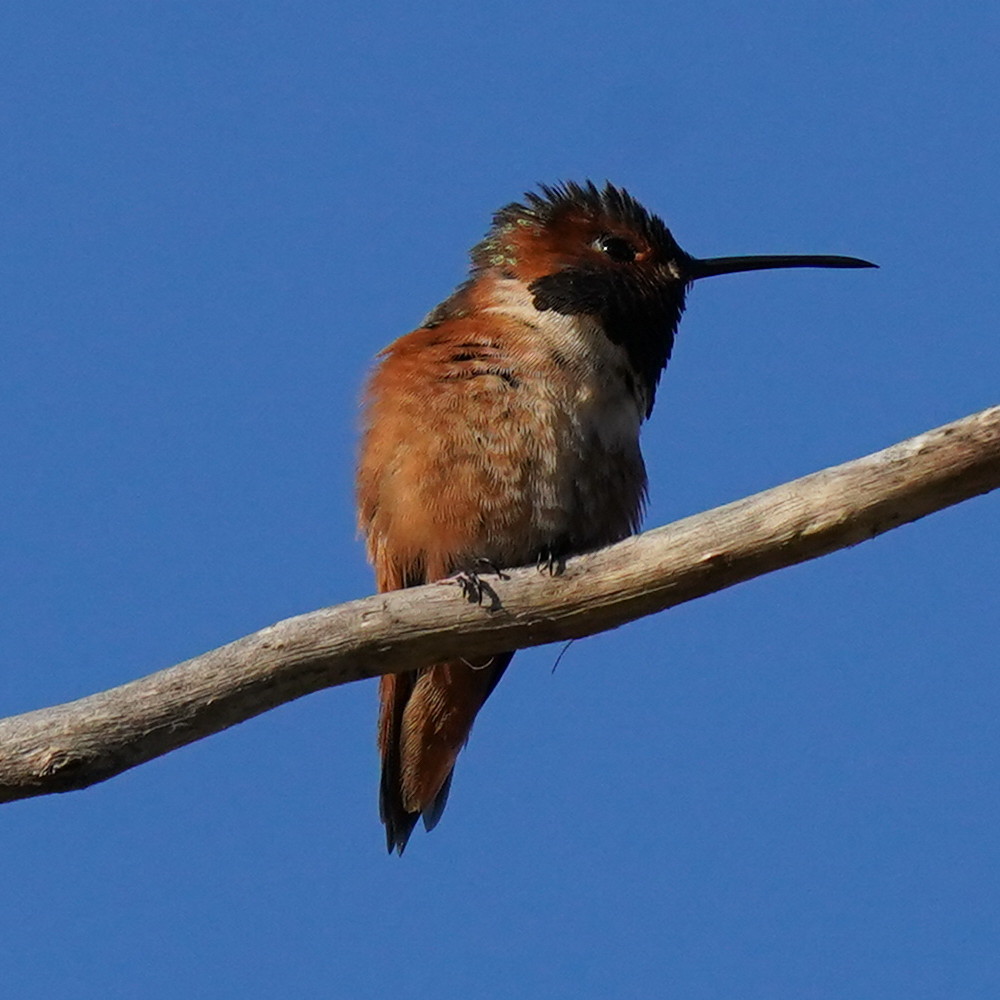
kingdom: Animalia
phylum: Chordata
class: Aves
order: Apodiformes
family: Trochilidae
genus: Selasphorus
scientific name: Selasphorus sasin
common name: Allen's hummingbird
